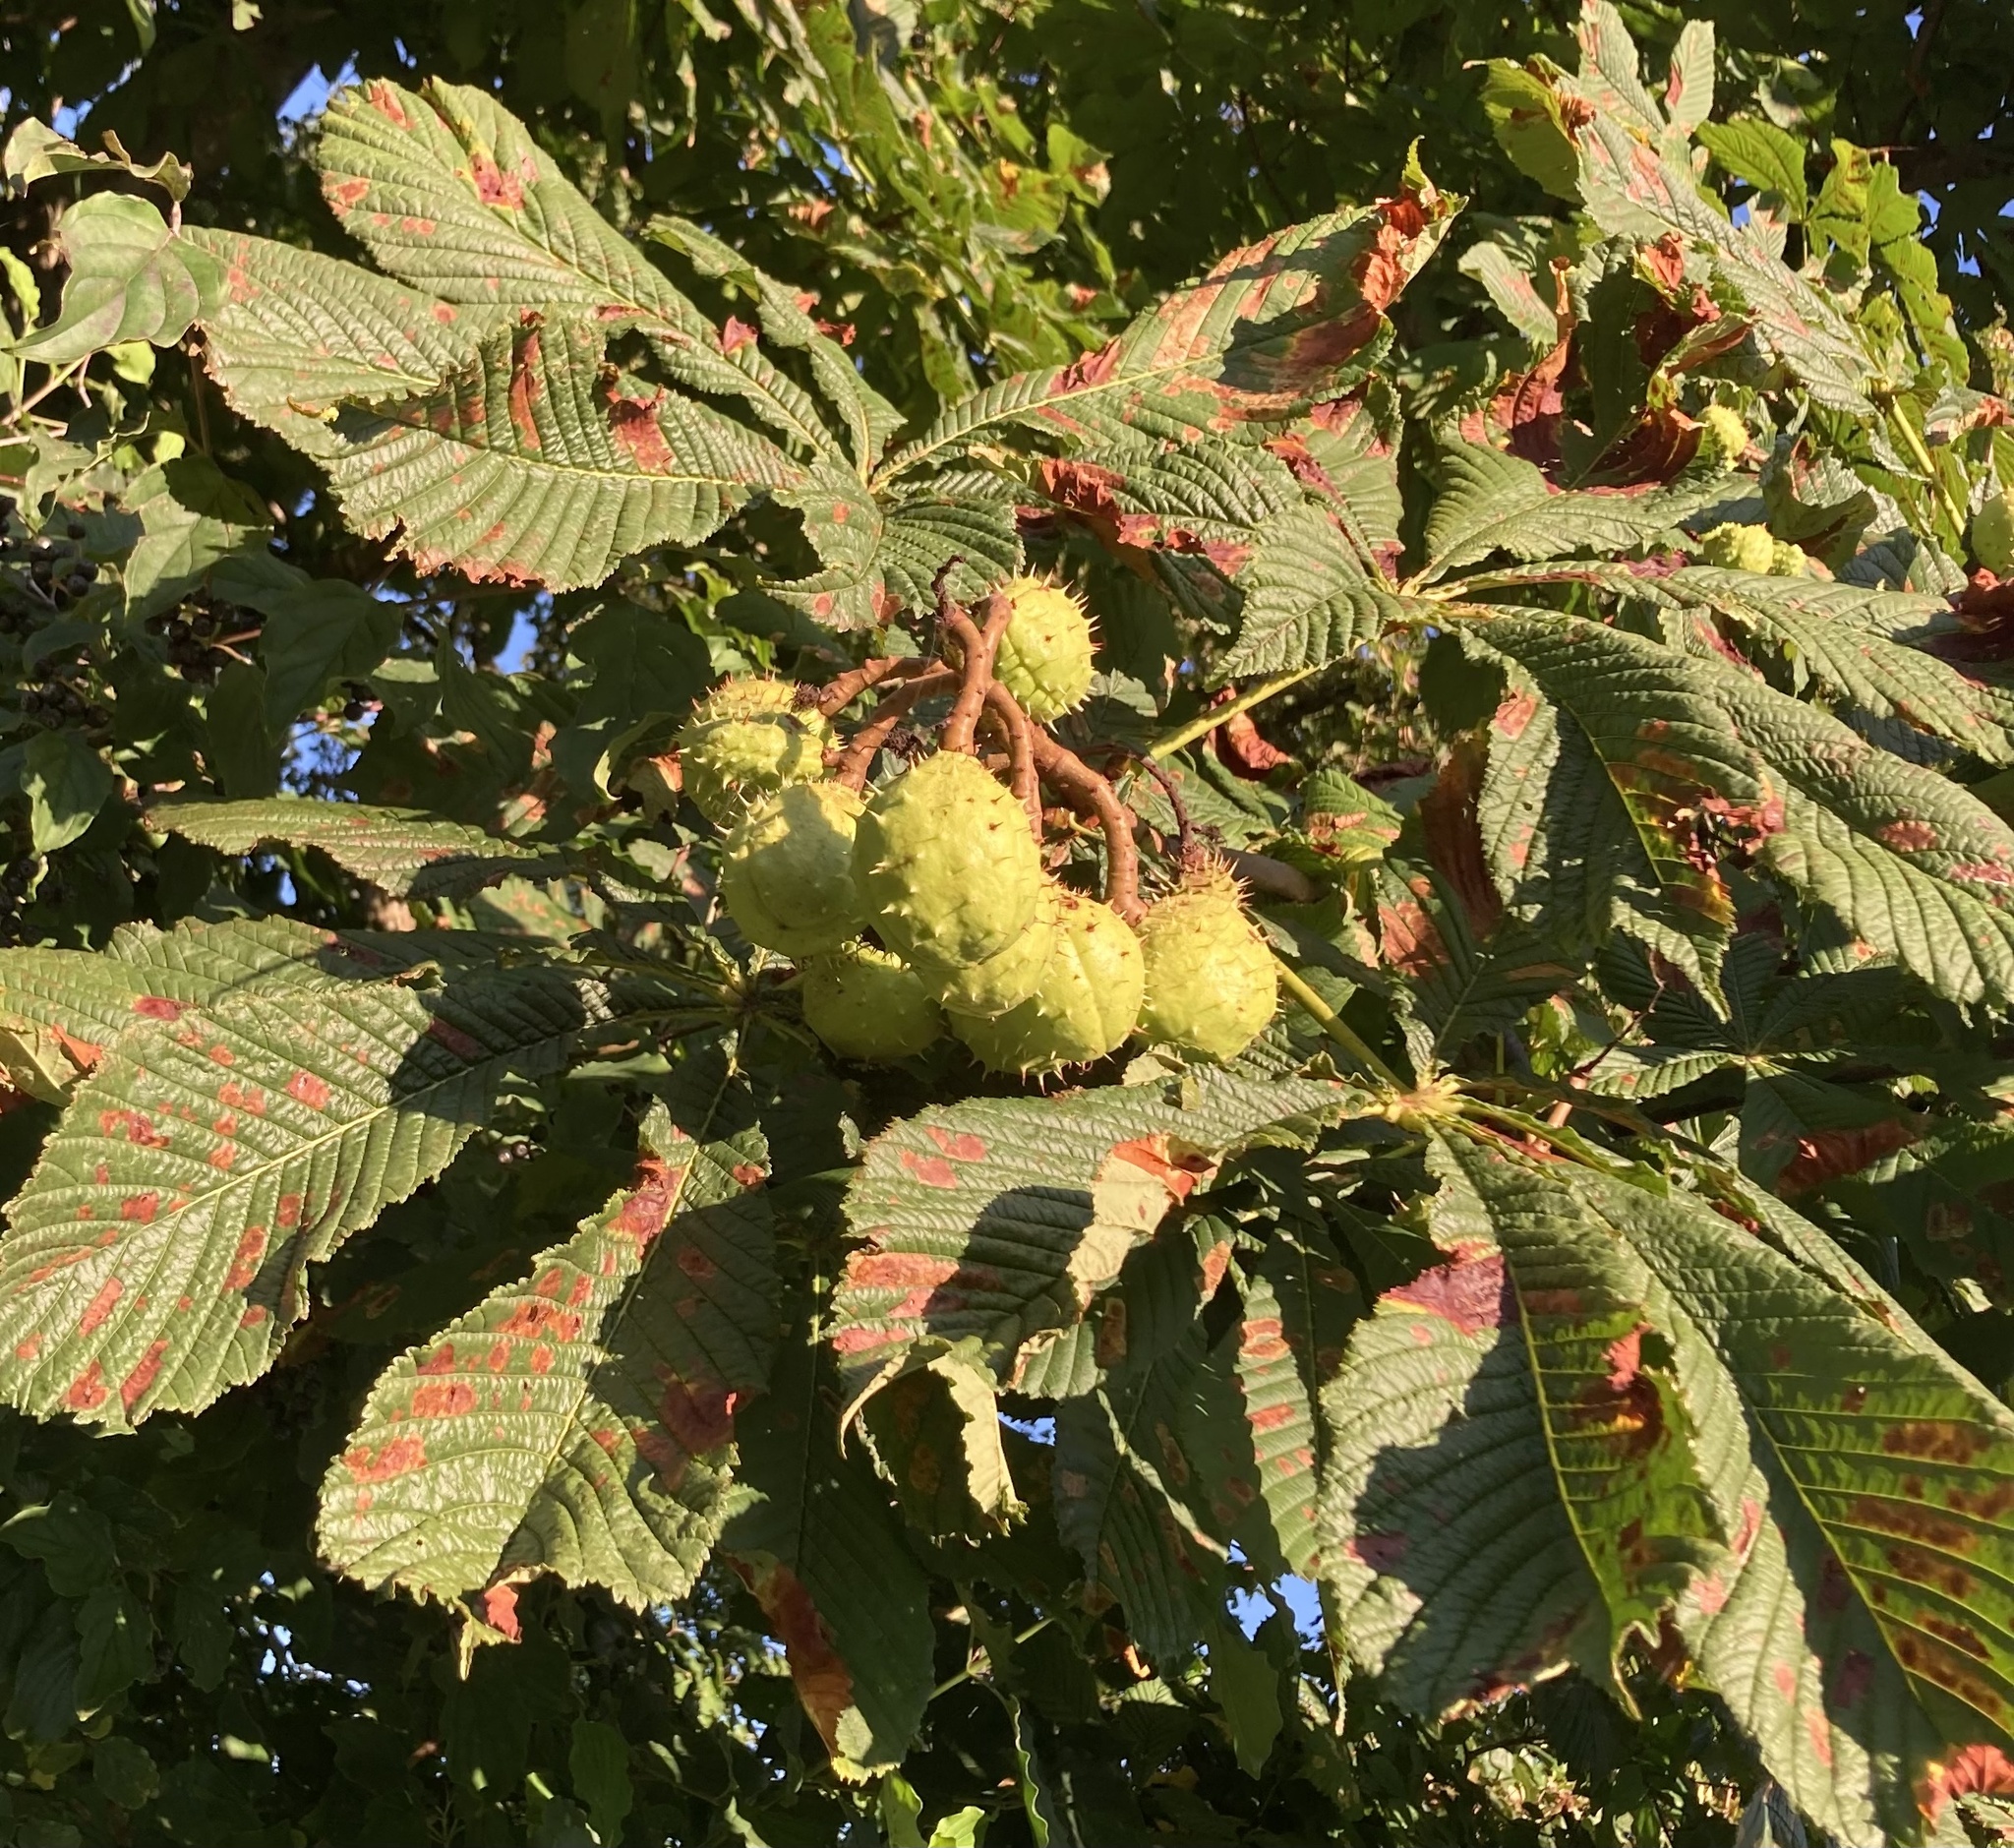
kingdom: Plantae
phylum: Tracheophyta
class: Magnoliopsida
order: Sapindales
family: Sapindaceae
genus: Aesculus
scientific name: Aesculus hippocastanum
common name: Horse-chestnut
